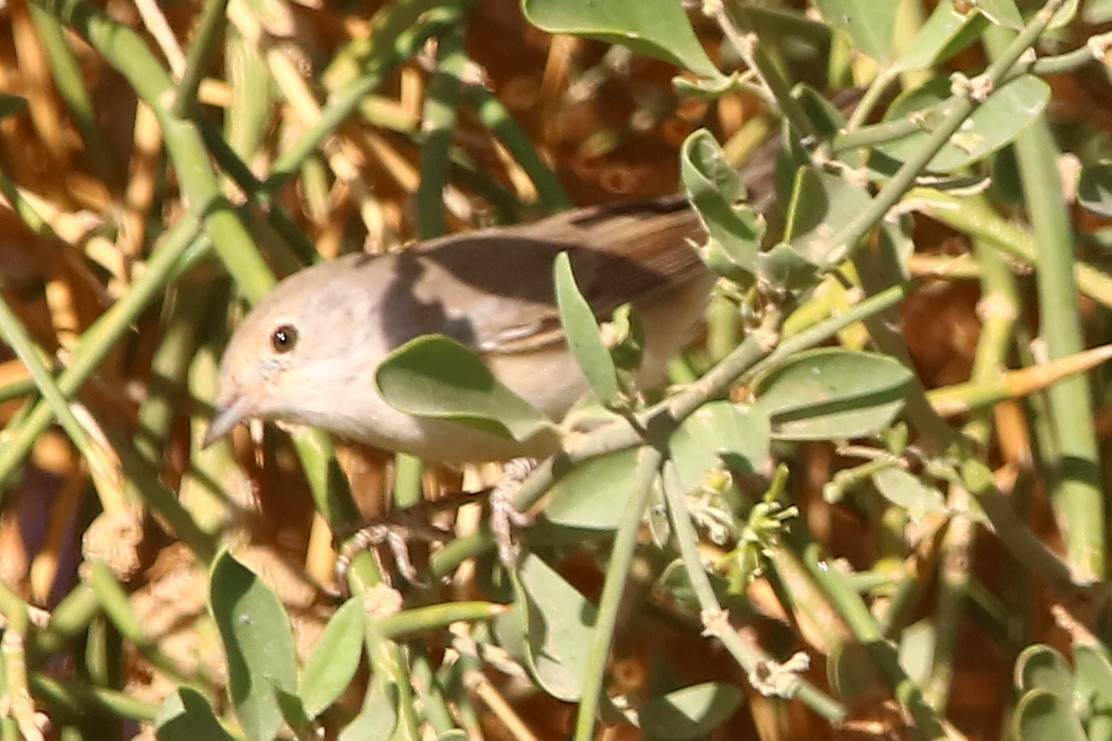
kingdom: Animalia
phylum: Chordata
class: Aves
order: Passeriformes
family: Sylviidae
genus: Sylvia
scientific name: Sylvia communis
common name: Common whitethroat
